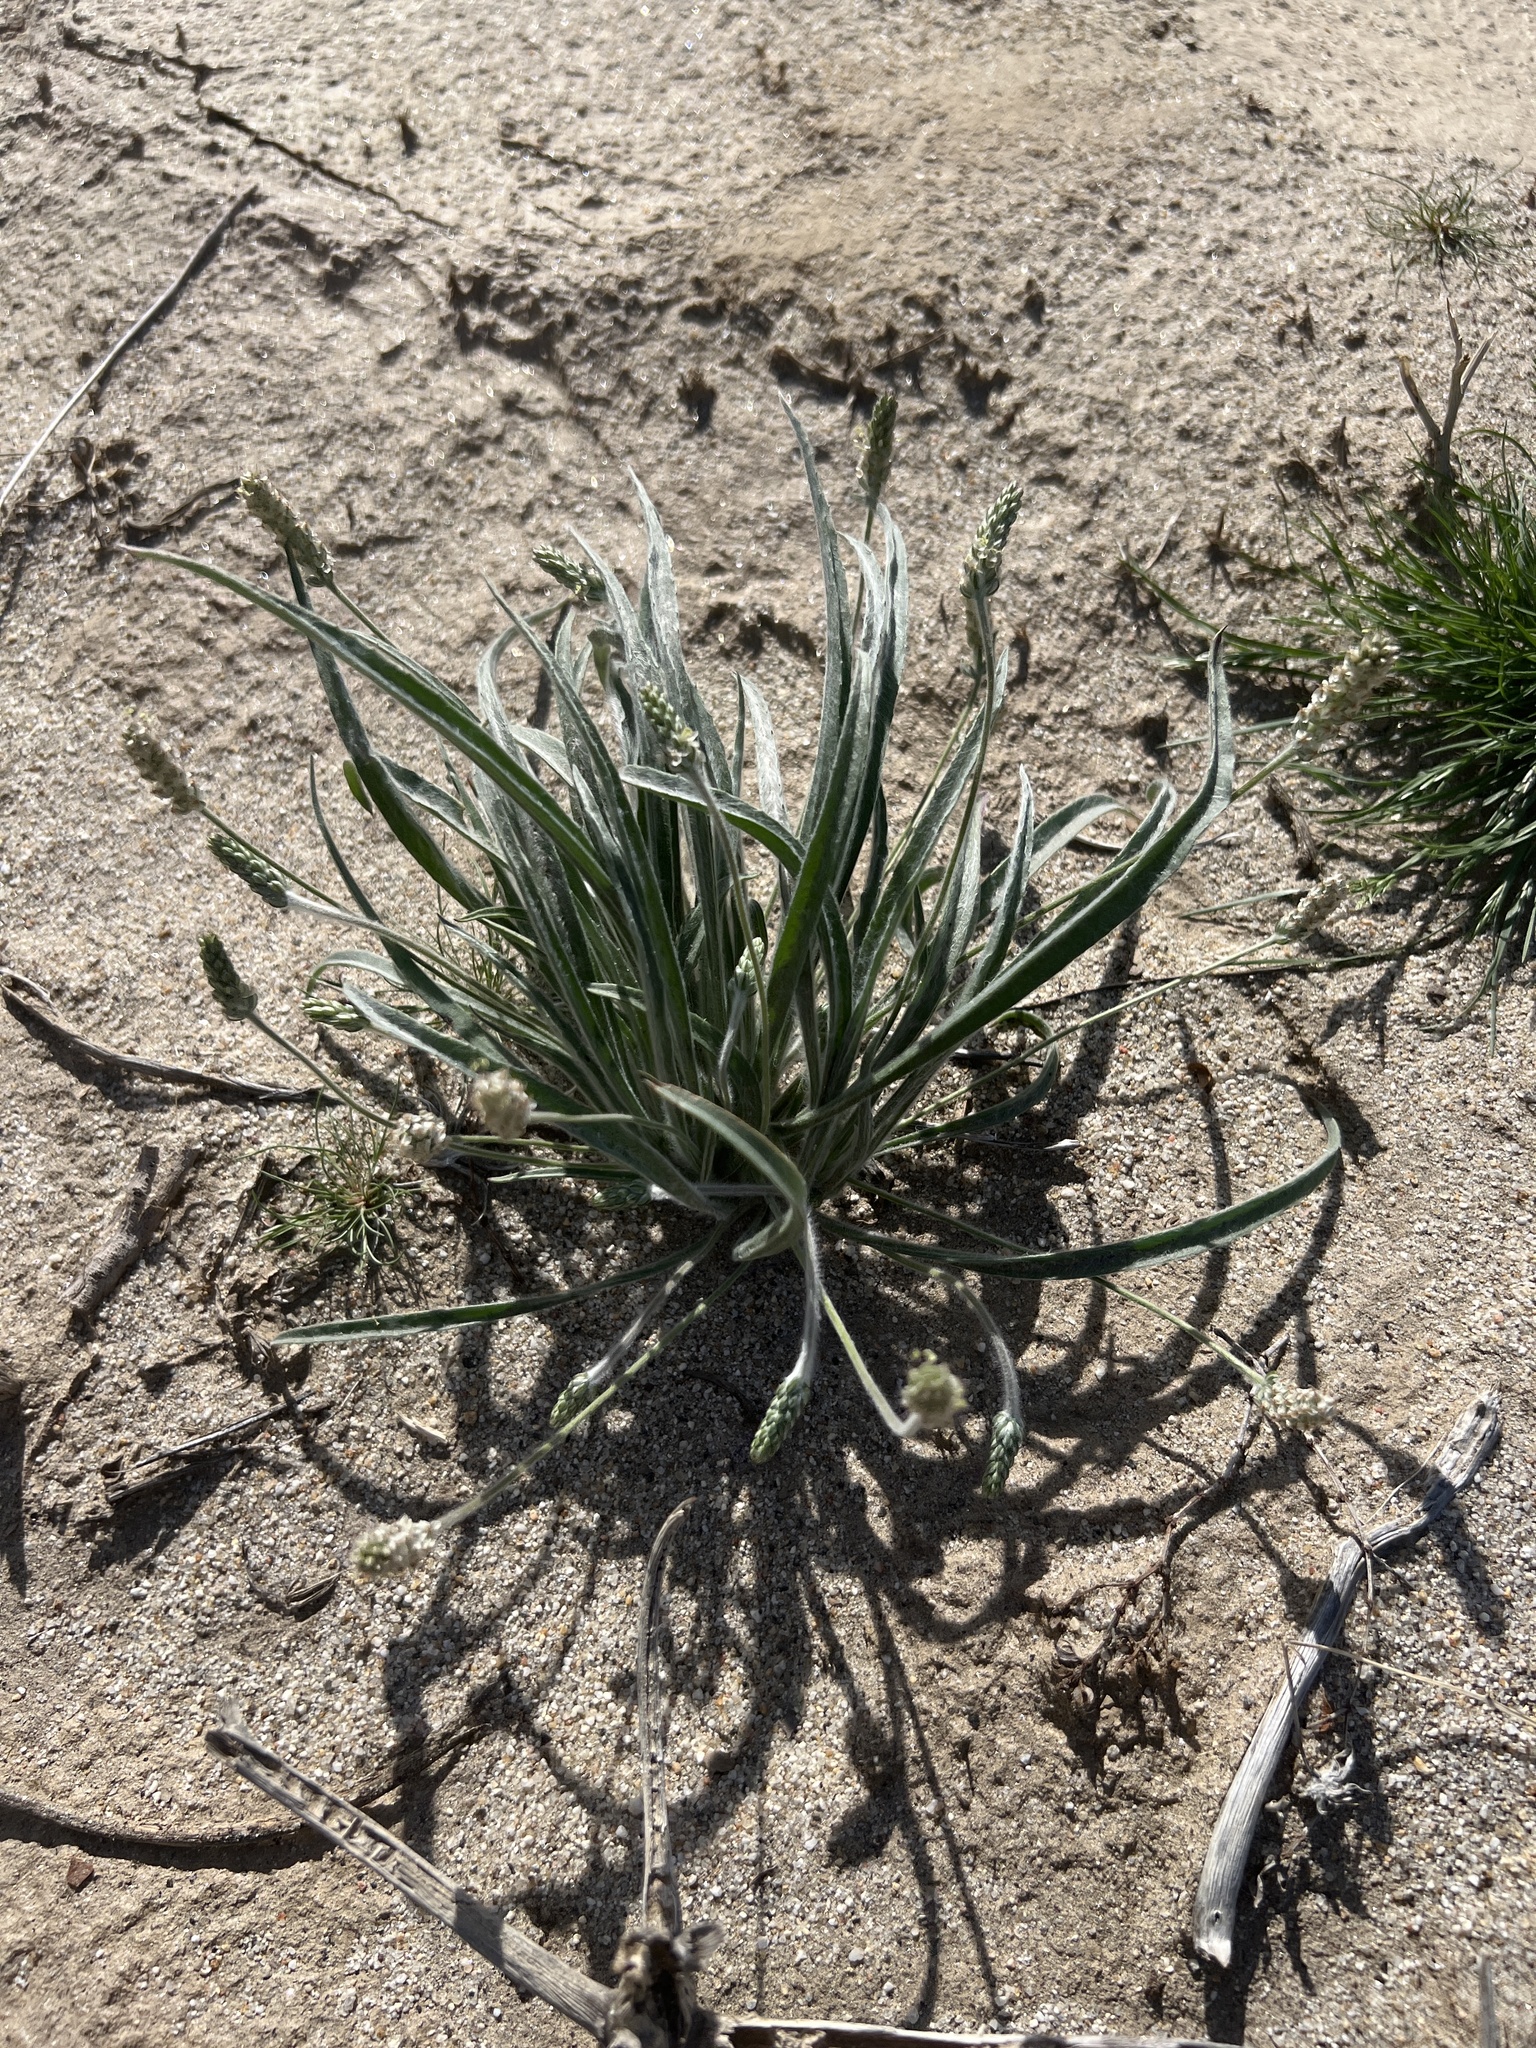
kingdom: Plantae
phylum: Tracheophyta
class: Magnoliopsida
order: Lamiales
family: Plantaginaceae
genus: Plantago
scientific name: Plantago ovata
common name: Blond plantain
